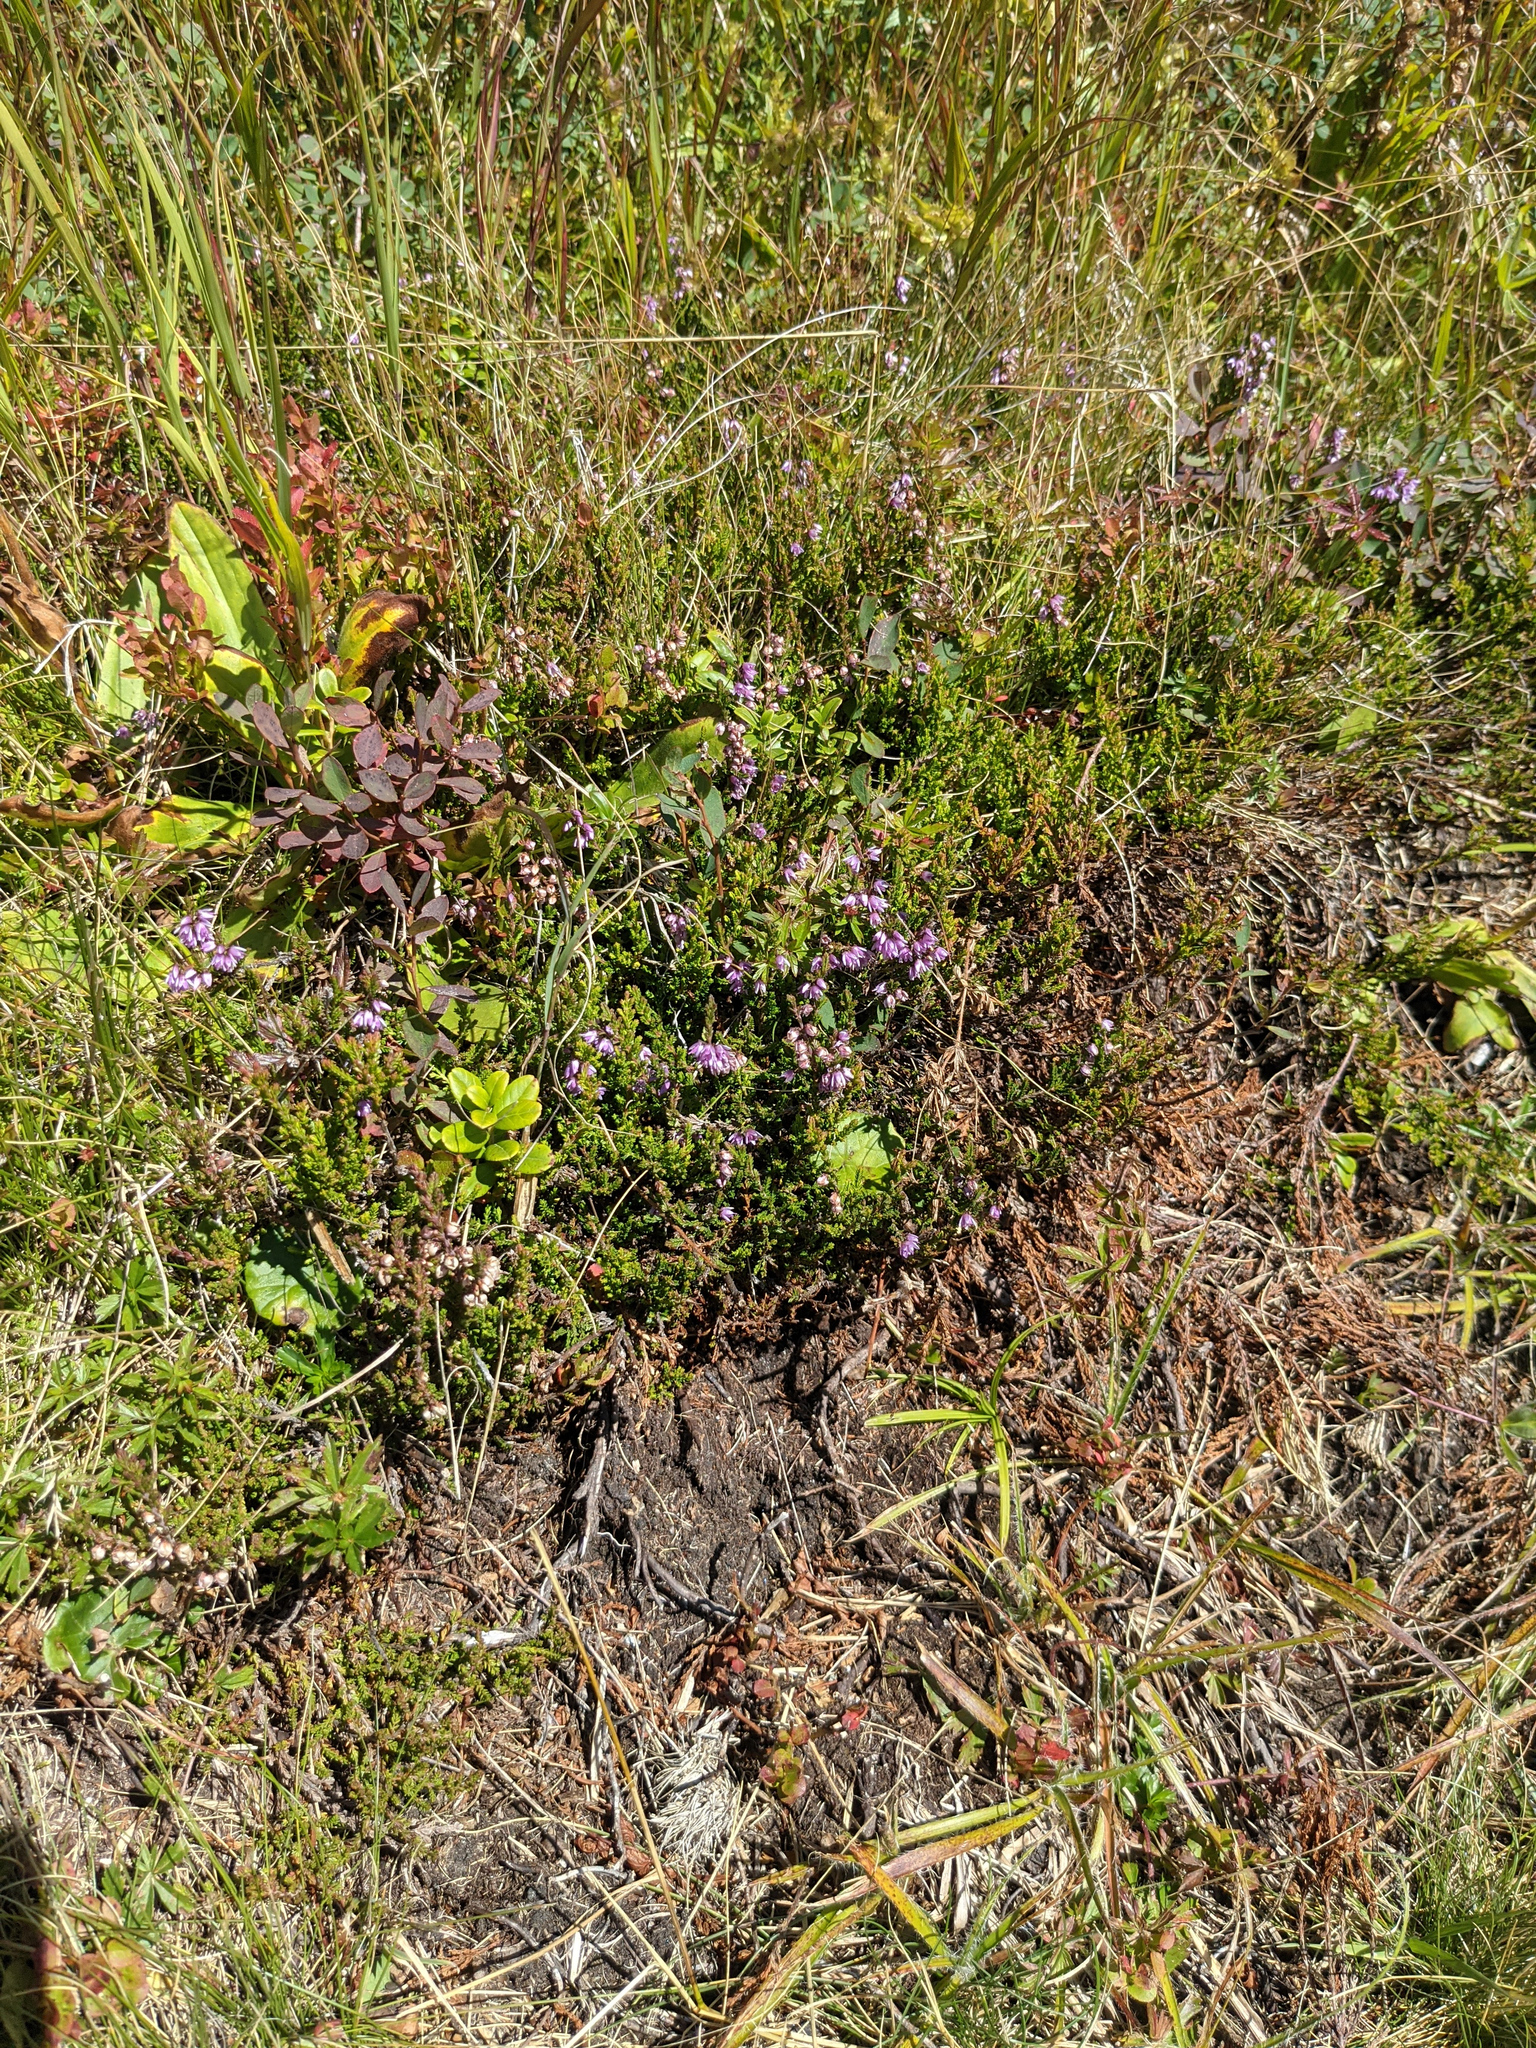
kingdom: Plantae
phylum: Tracheophyta
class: Magnoliopsida
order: Ericales
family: Ericaceae
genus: Calluna
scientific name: Calluna vulgaris
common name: Heather
